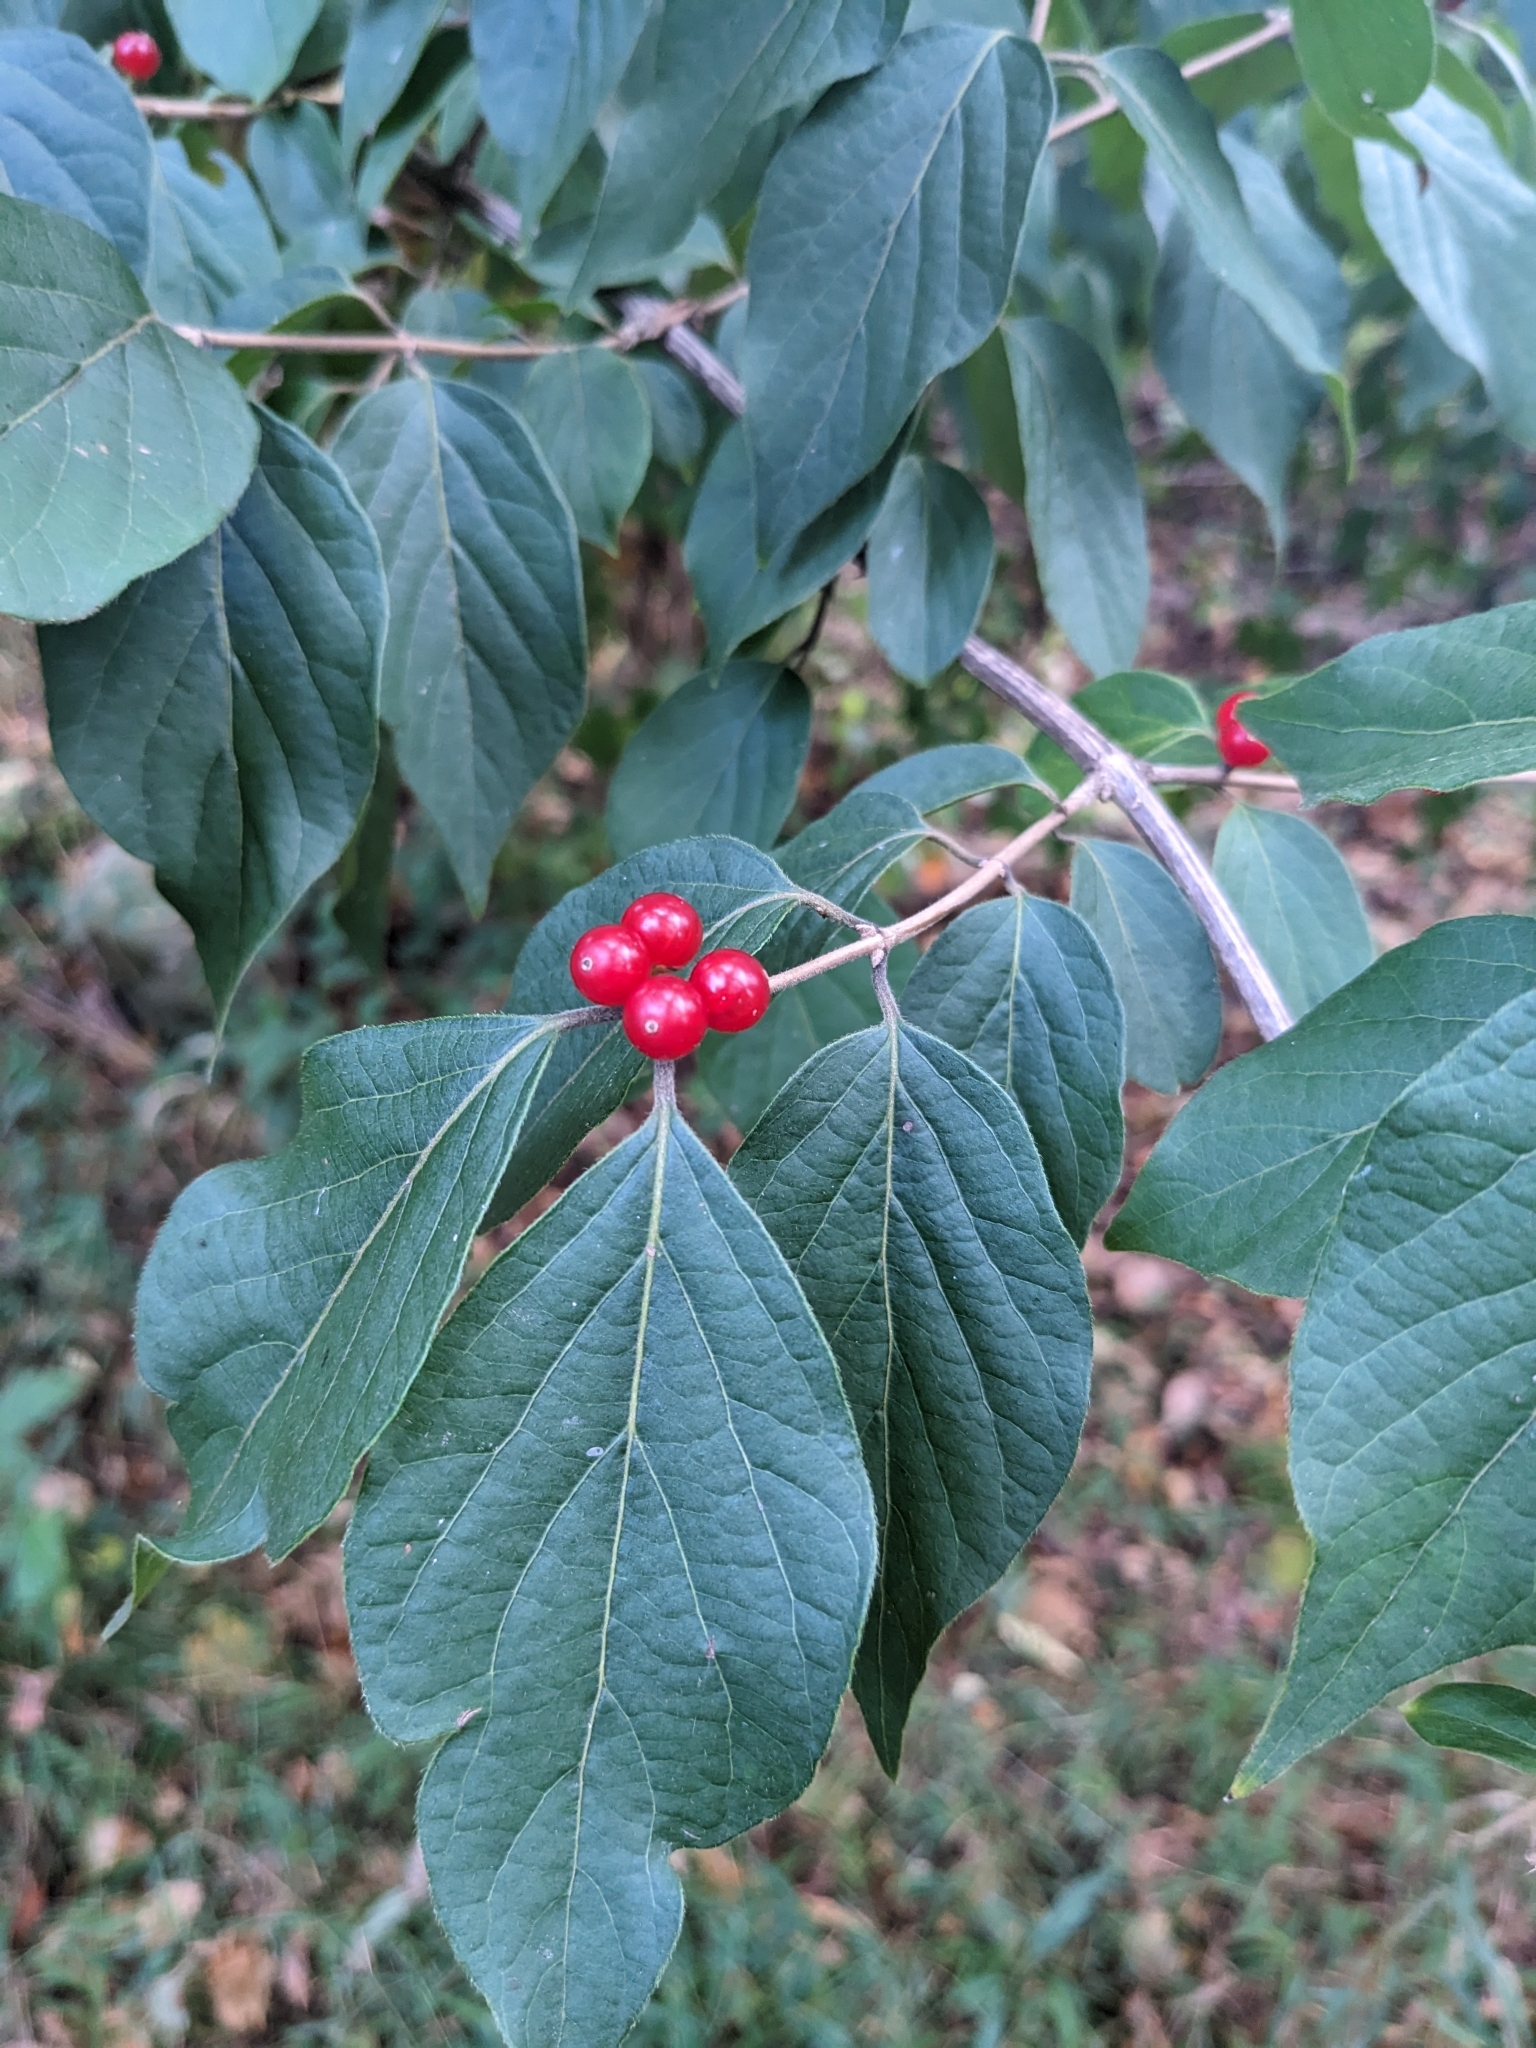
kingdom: Plantae
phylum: Tracheophyta
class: Magnoliopsida
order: Dipsacales
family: Caprifoliaceae
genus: Lonicera
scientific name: Lonicera maackii
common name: Amur honeysuckle
